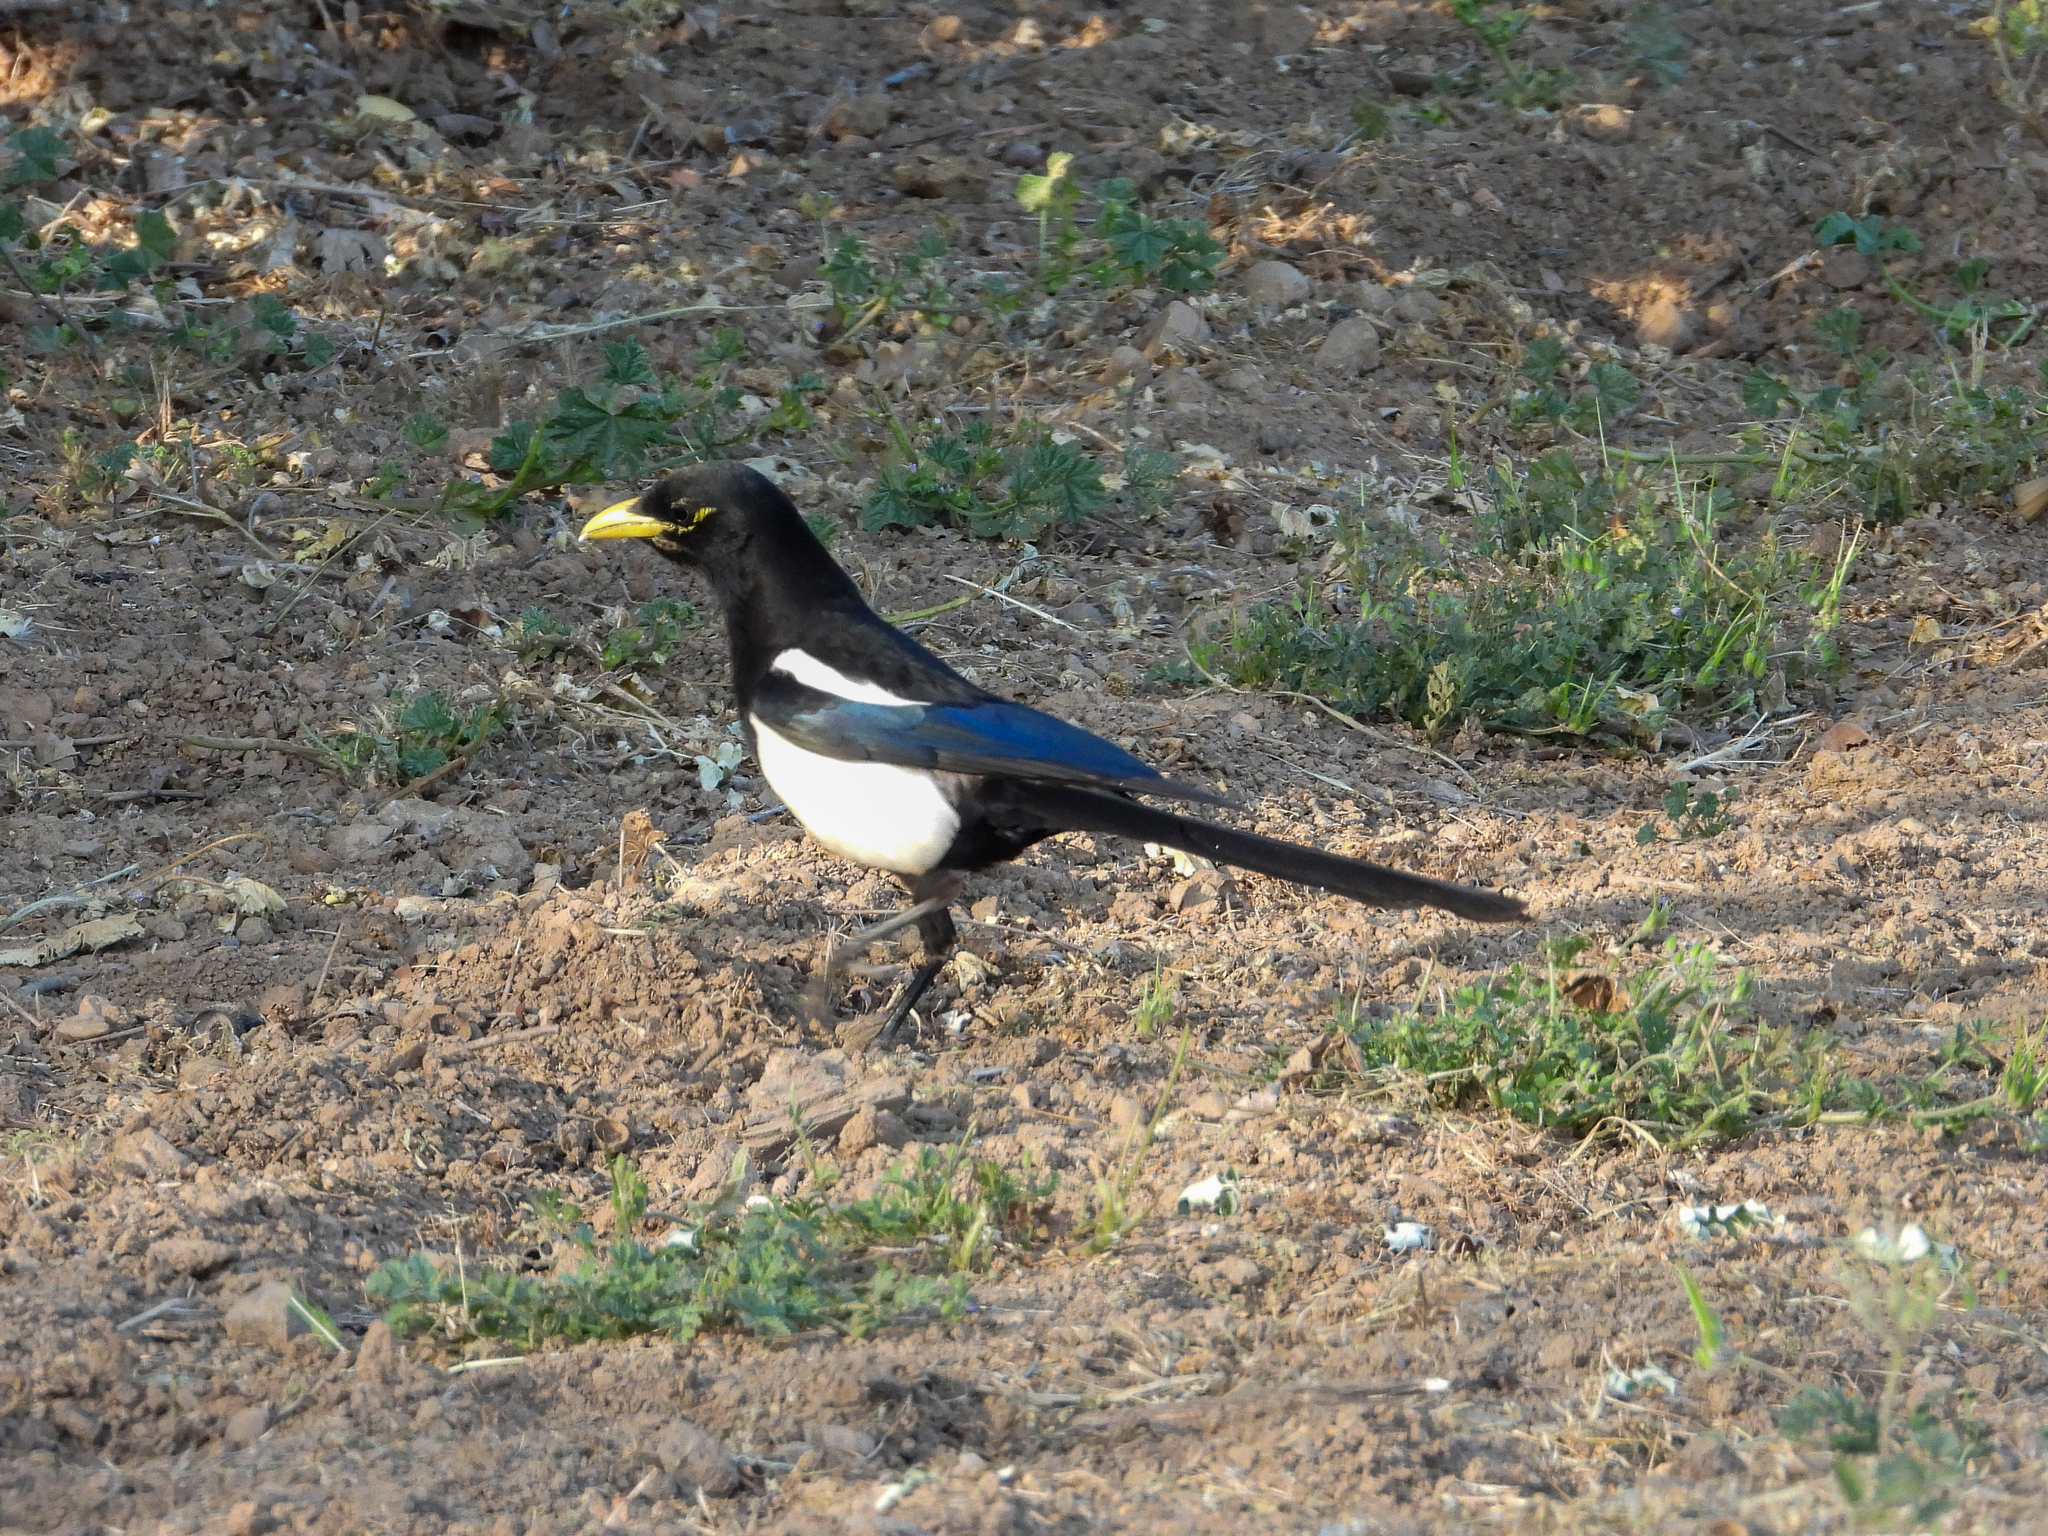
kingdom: Animalia
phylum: Chordata
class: Aves
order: Passeriformes
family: Corvidae
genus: Pica
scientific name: Pica nuttalli
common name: Yellow-billed magpie
